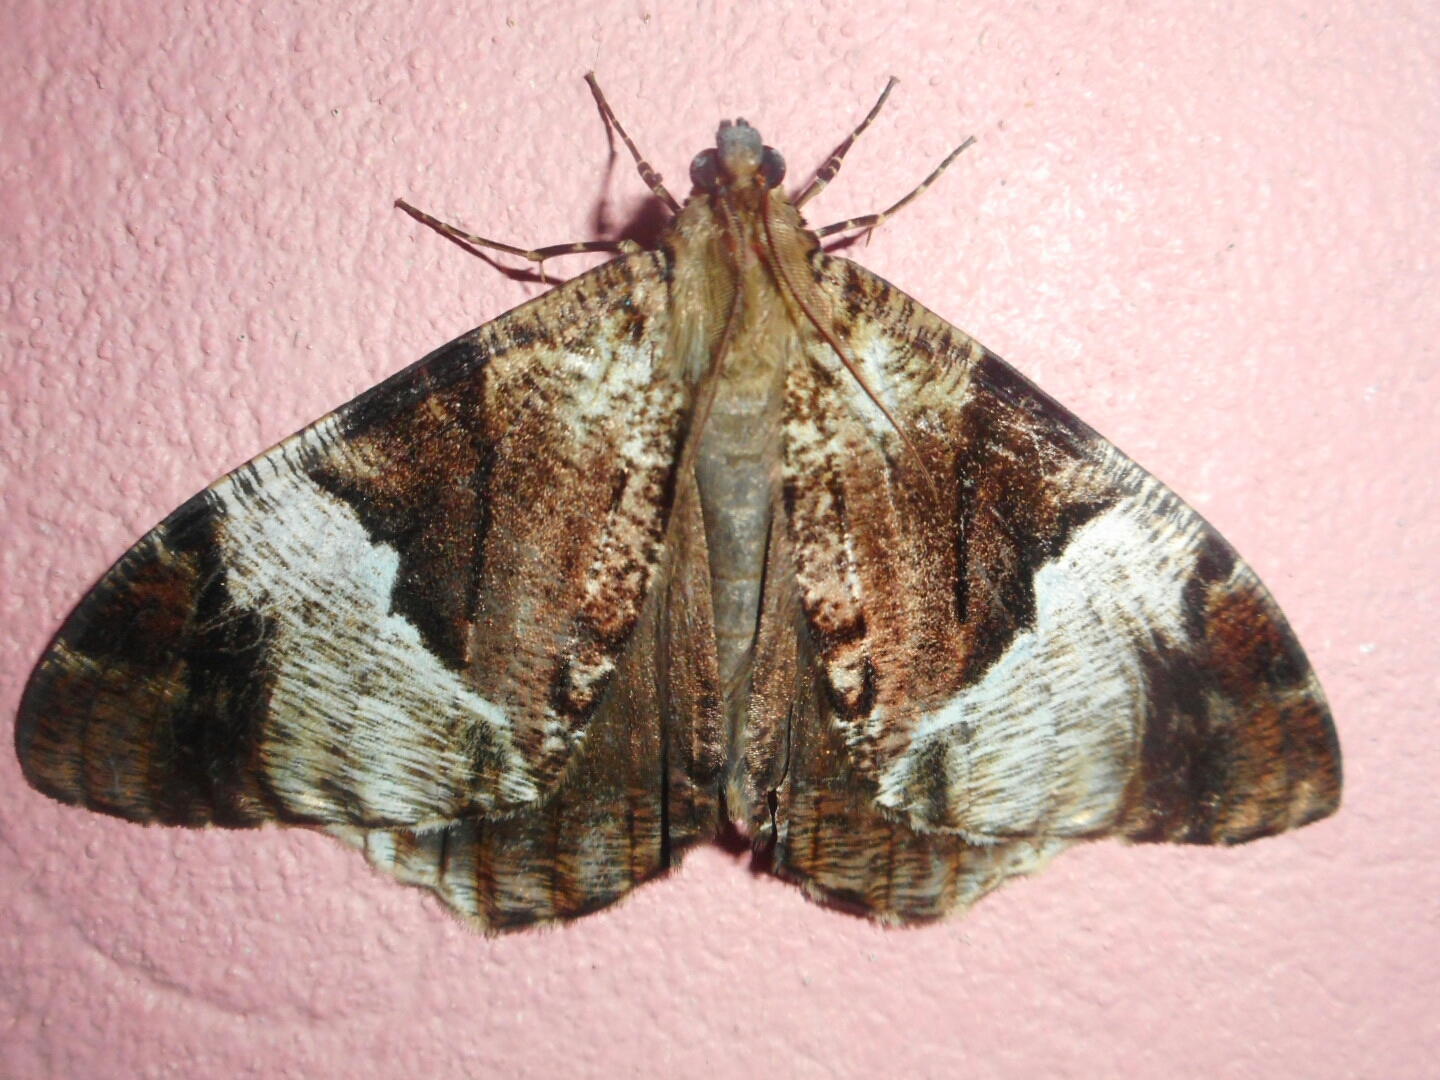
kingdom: Animalia
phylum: Arthropoda
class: Insecta
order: Lepidoptera
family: Geometridae
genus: Xandrames
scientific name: Xandrames dholaria
